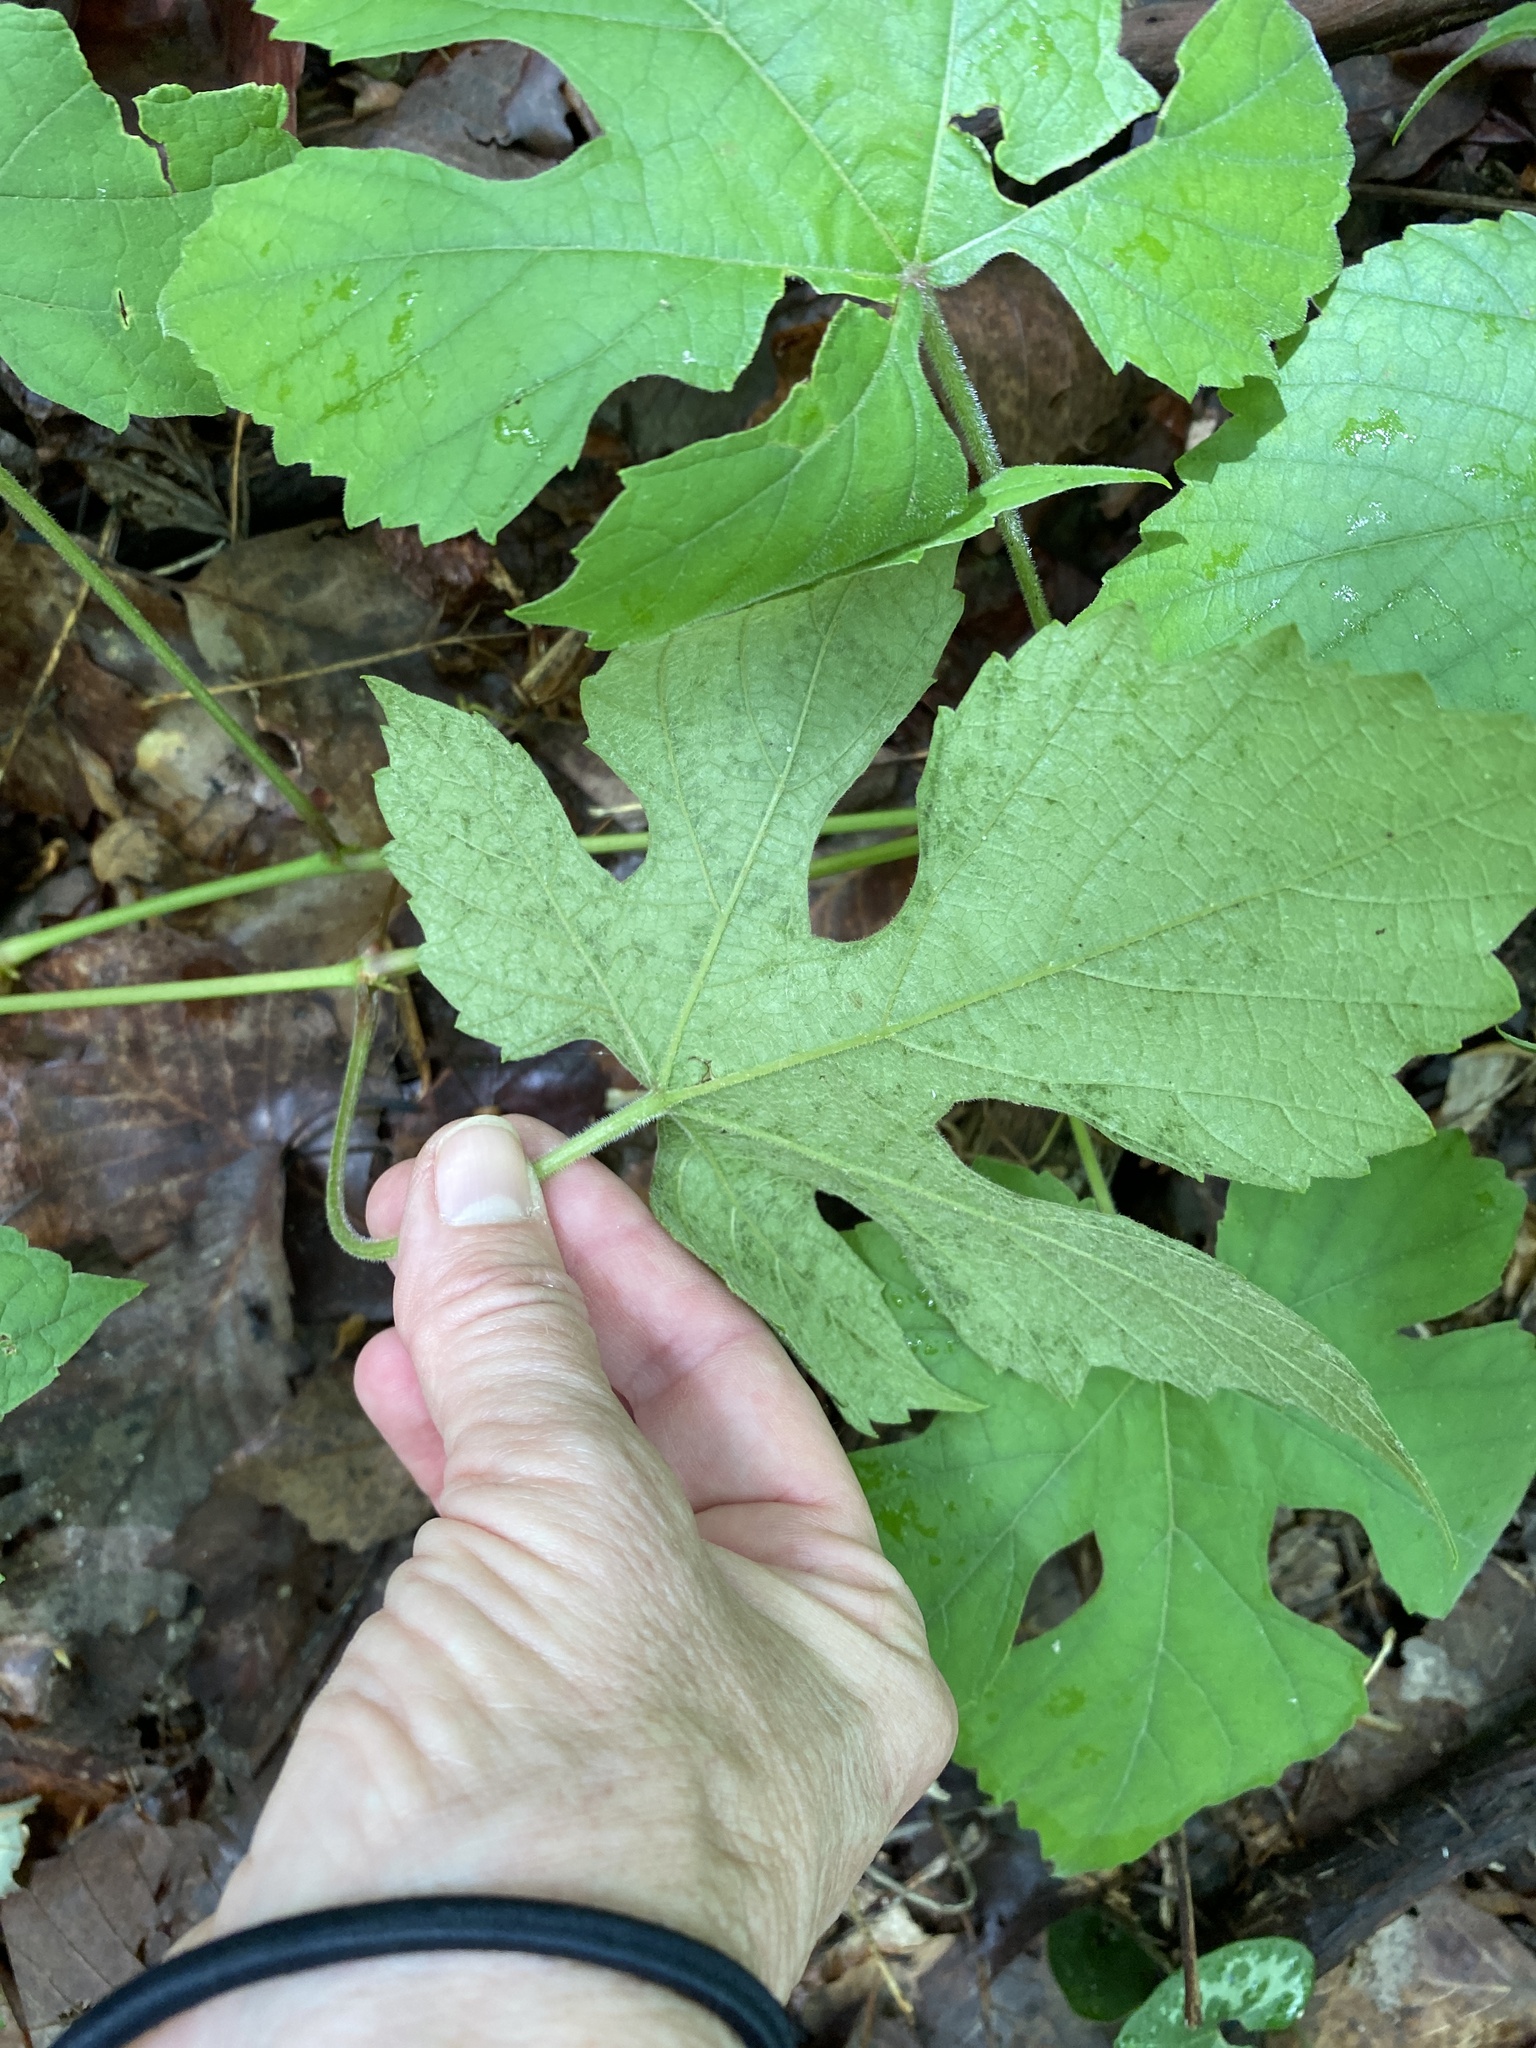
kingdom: Plantae
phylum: Tracheophyta
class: Magnoliopsida
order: Vitales
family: Vitaceae
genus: Vitis
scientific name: Vitis aestivalis
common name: Pigeon grape
